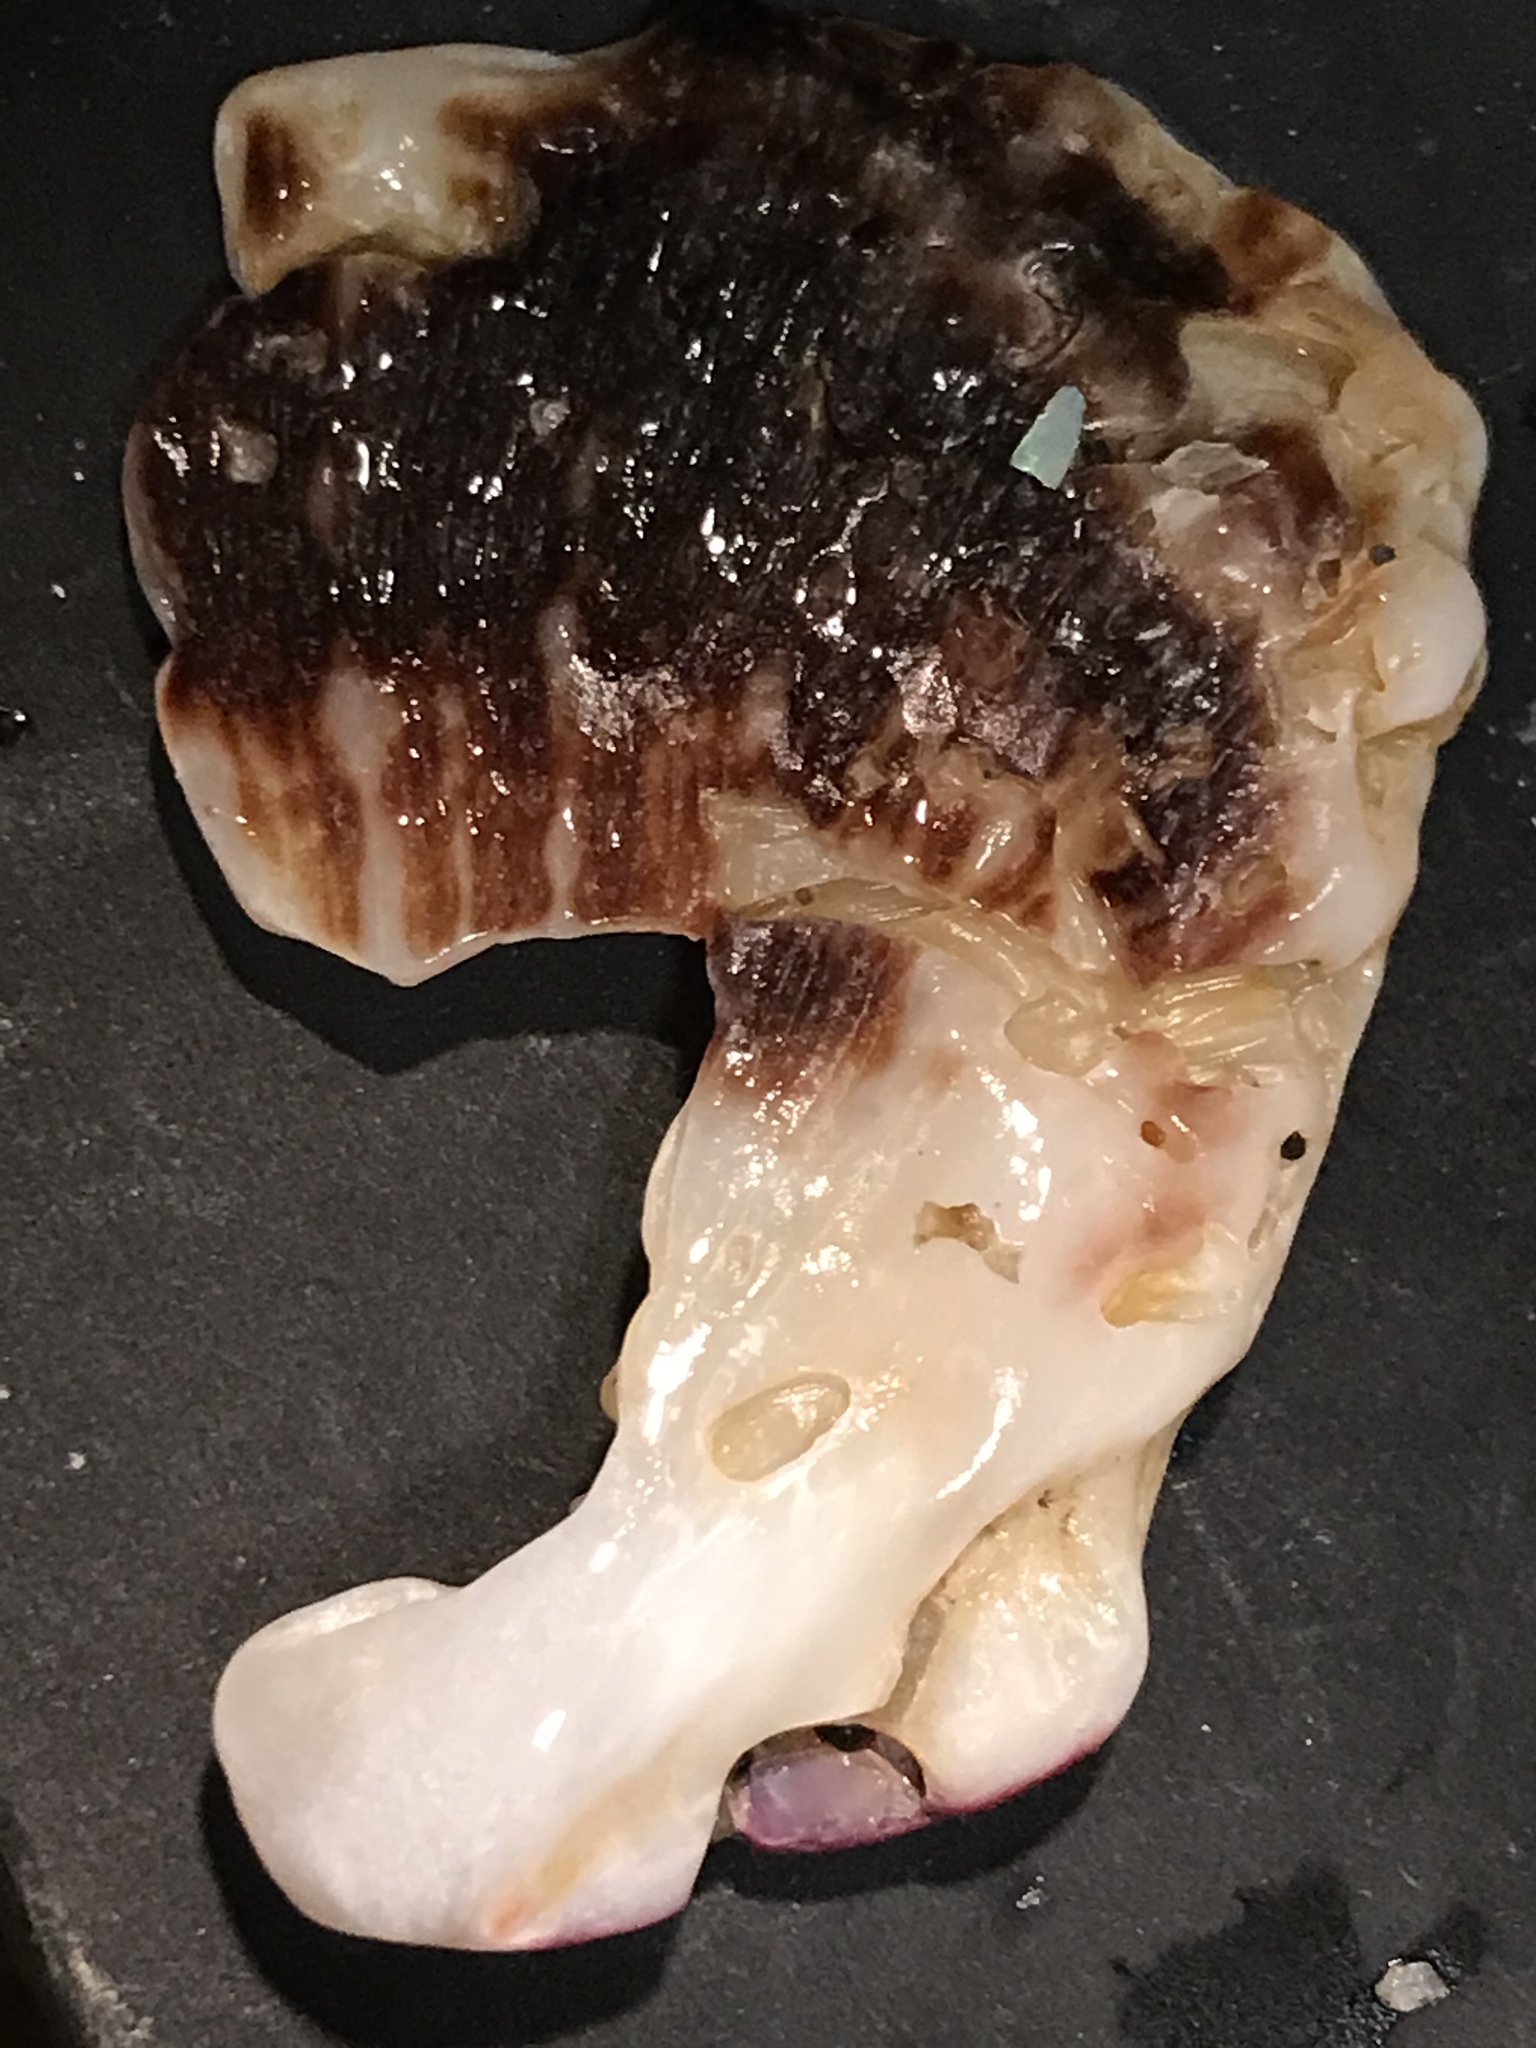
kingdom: Animalia
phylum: Mollusca
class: Bivalvia
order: Pectinida
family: Pectinidae
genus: Crassadoma
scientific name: Crassadoma gigantea
